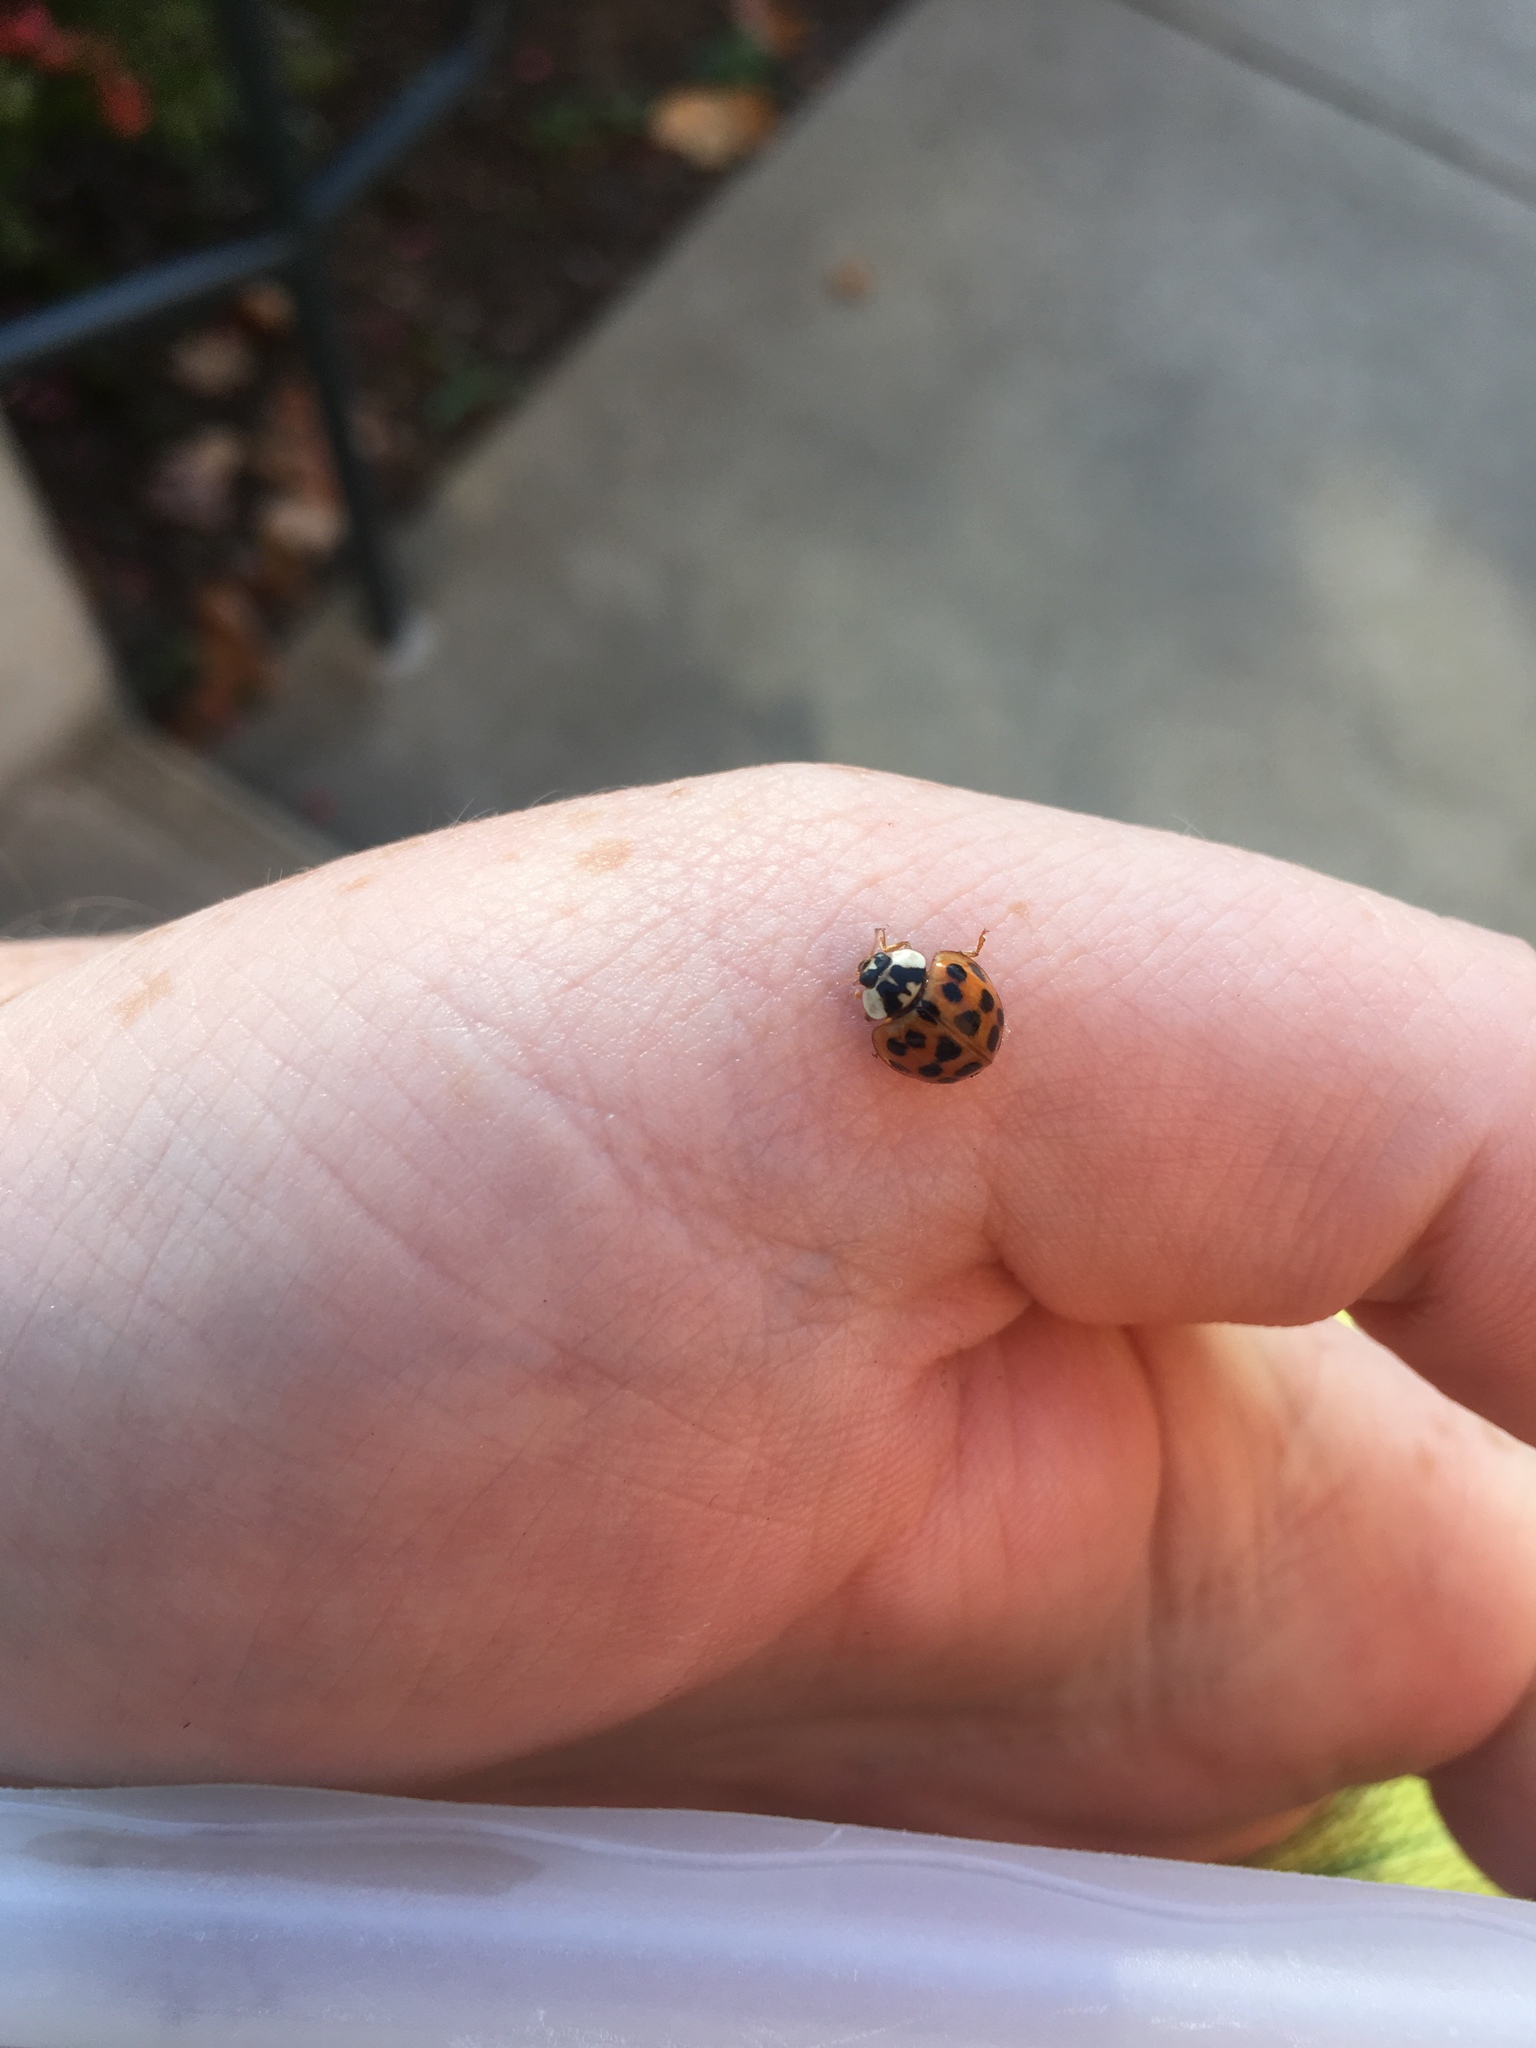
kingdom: Animalia
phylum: Arthropoda
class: Insecta
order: Coleoptera
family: Coccinellidae
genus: Harmonia
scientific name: Harmonia axyridis
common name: Harlequin ladybird
